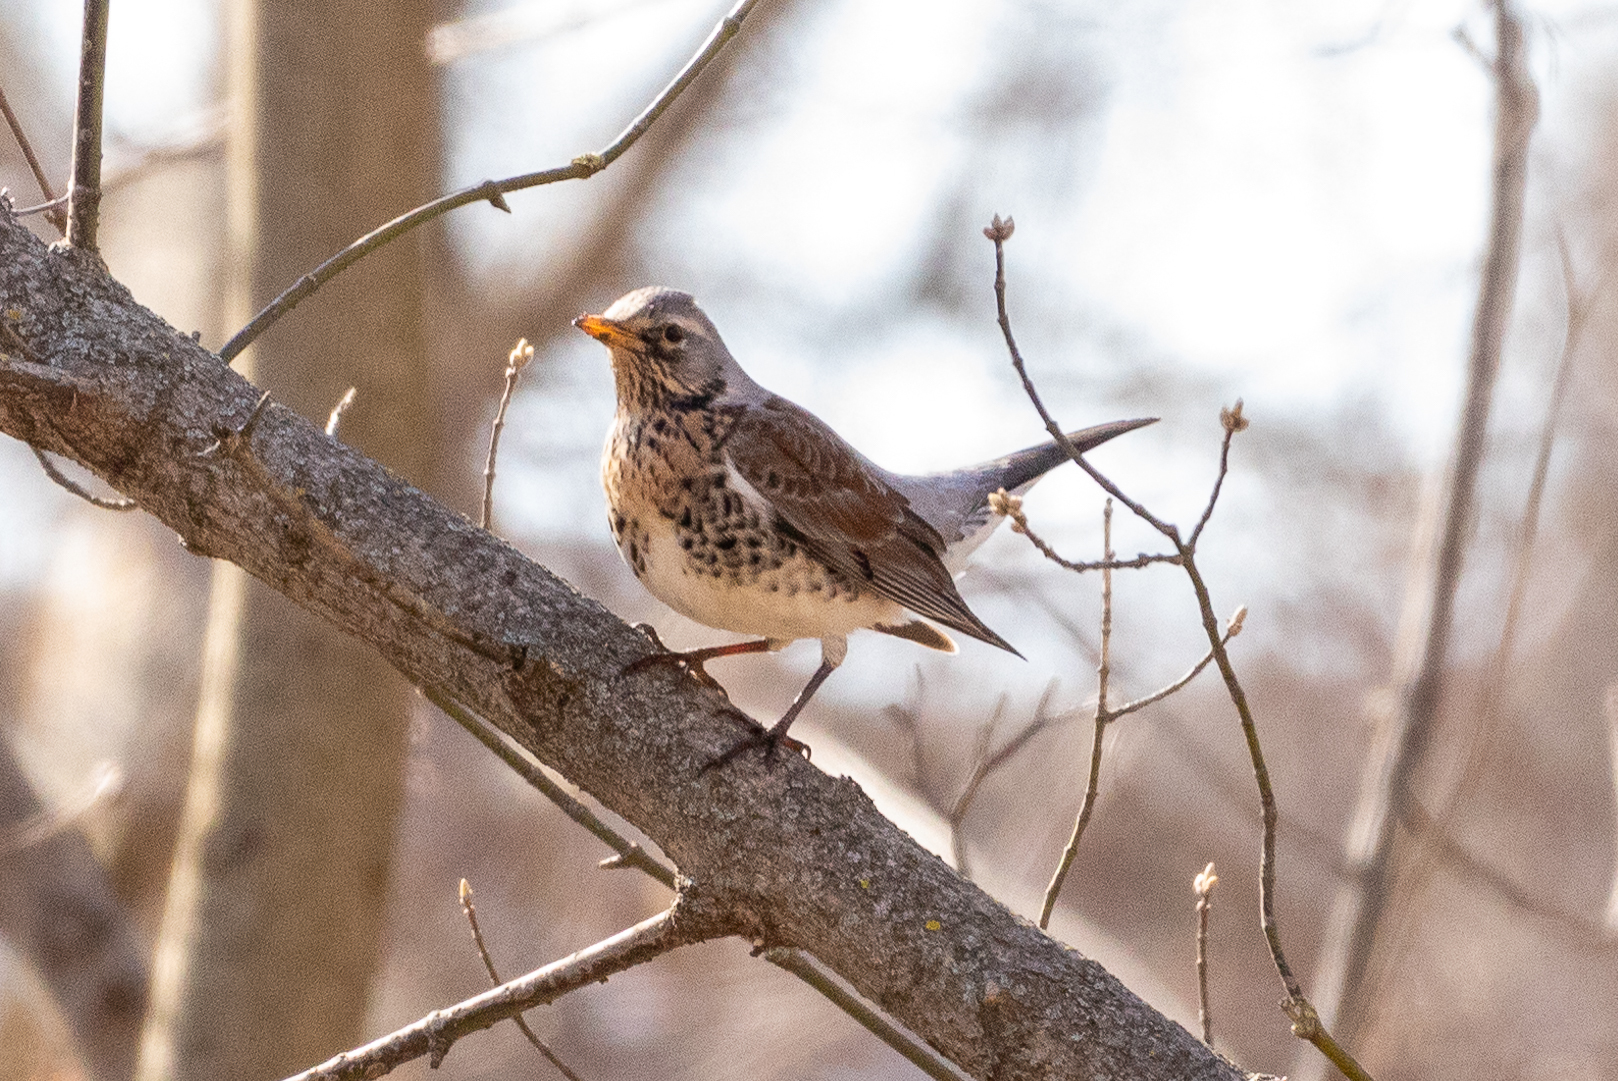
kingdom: Animalia
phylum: Chordata
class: Aves
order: Passeriformes
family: Turdidae
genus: Turdus
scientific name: Turdus pilaris
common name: Fieldfare
